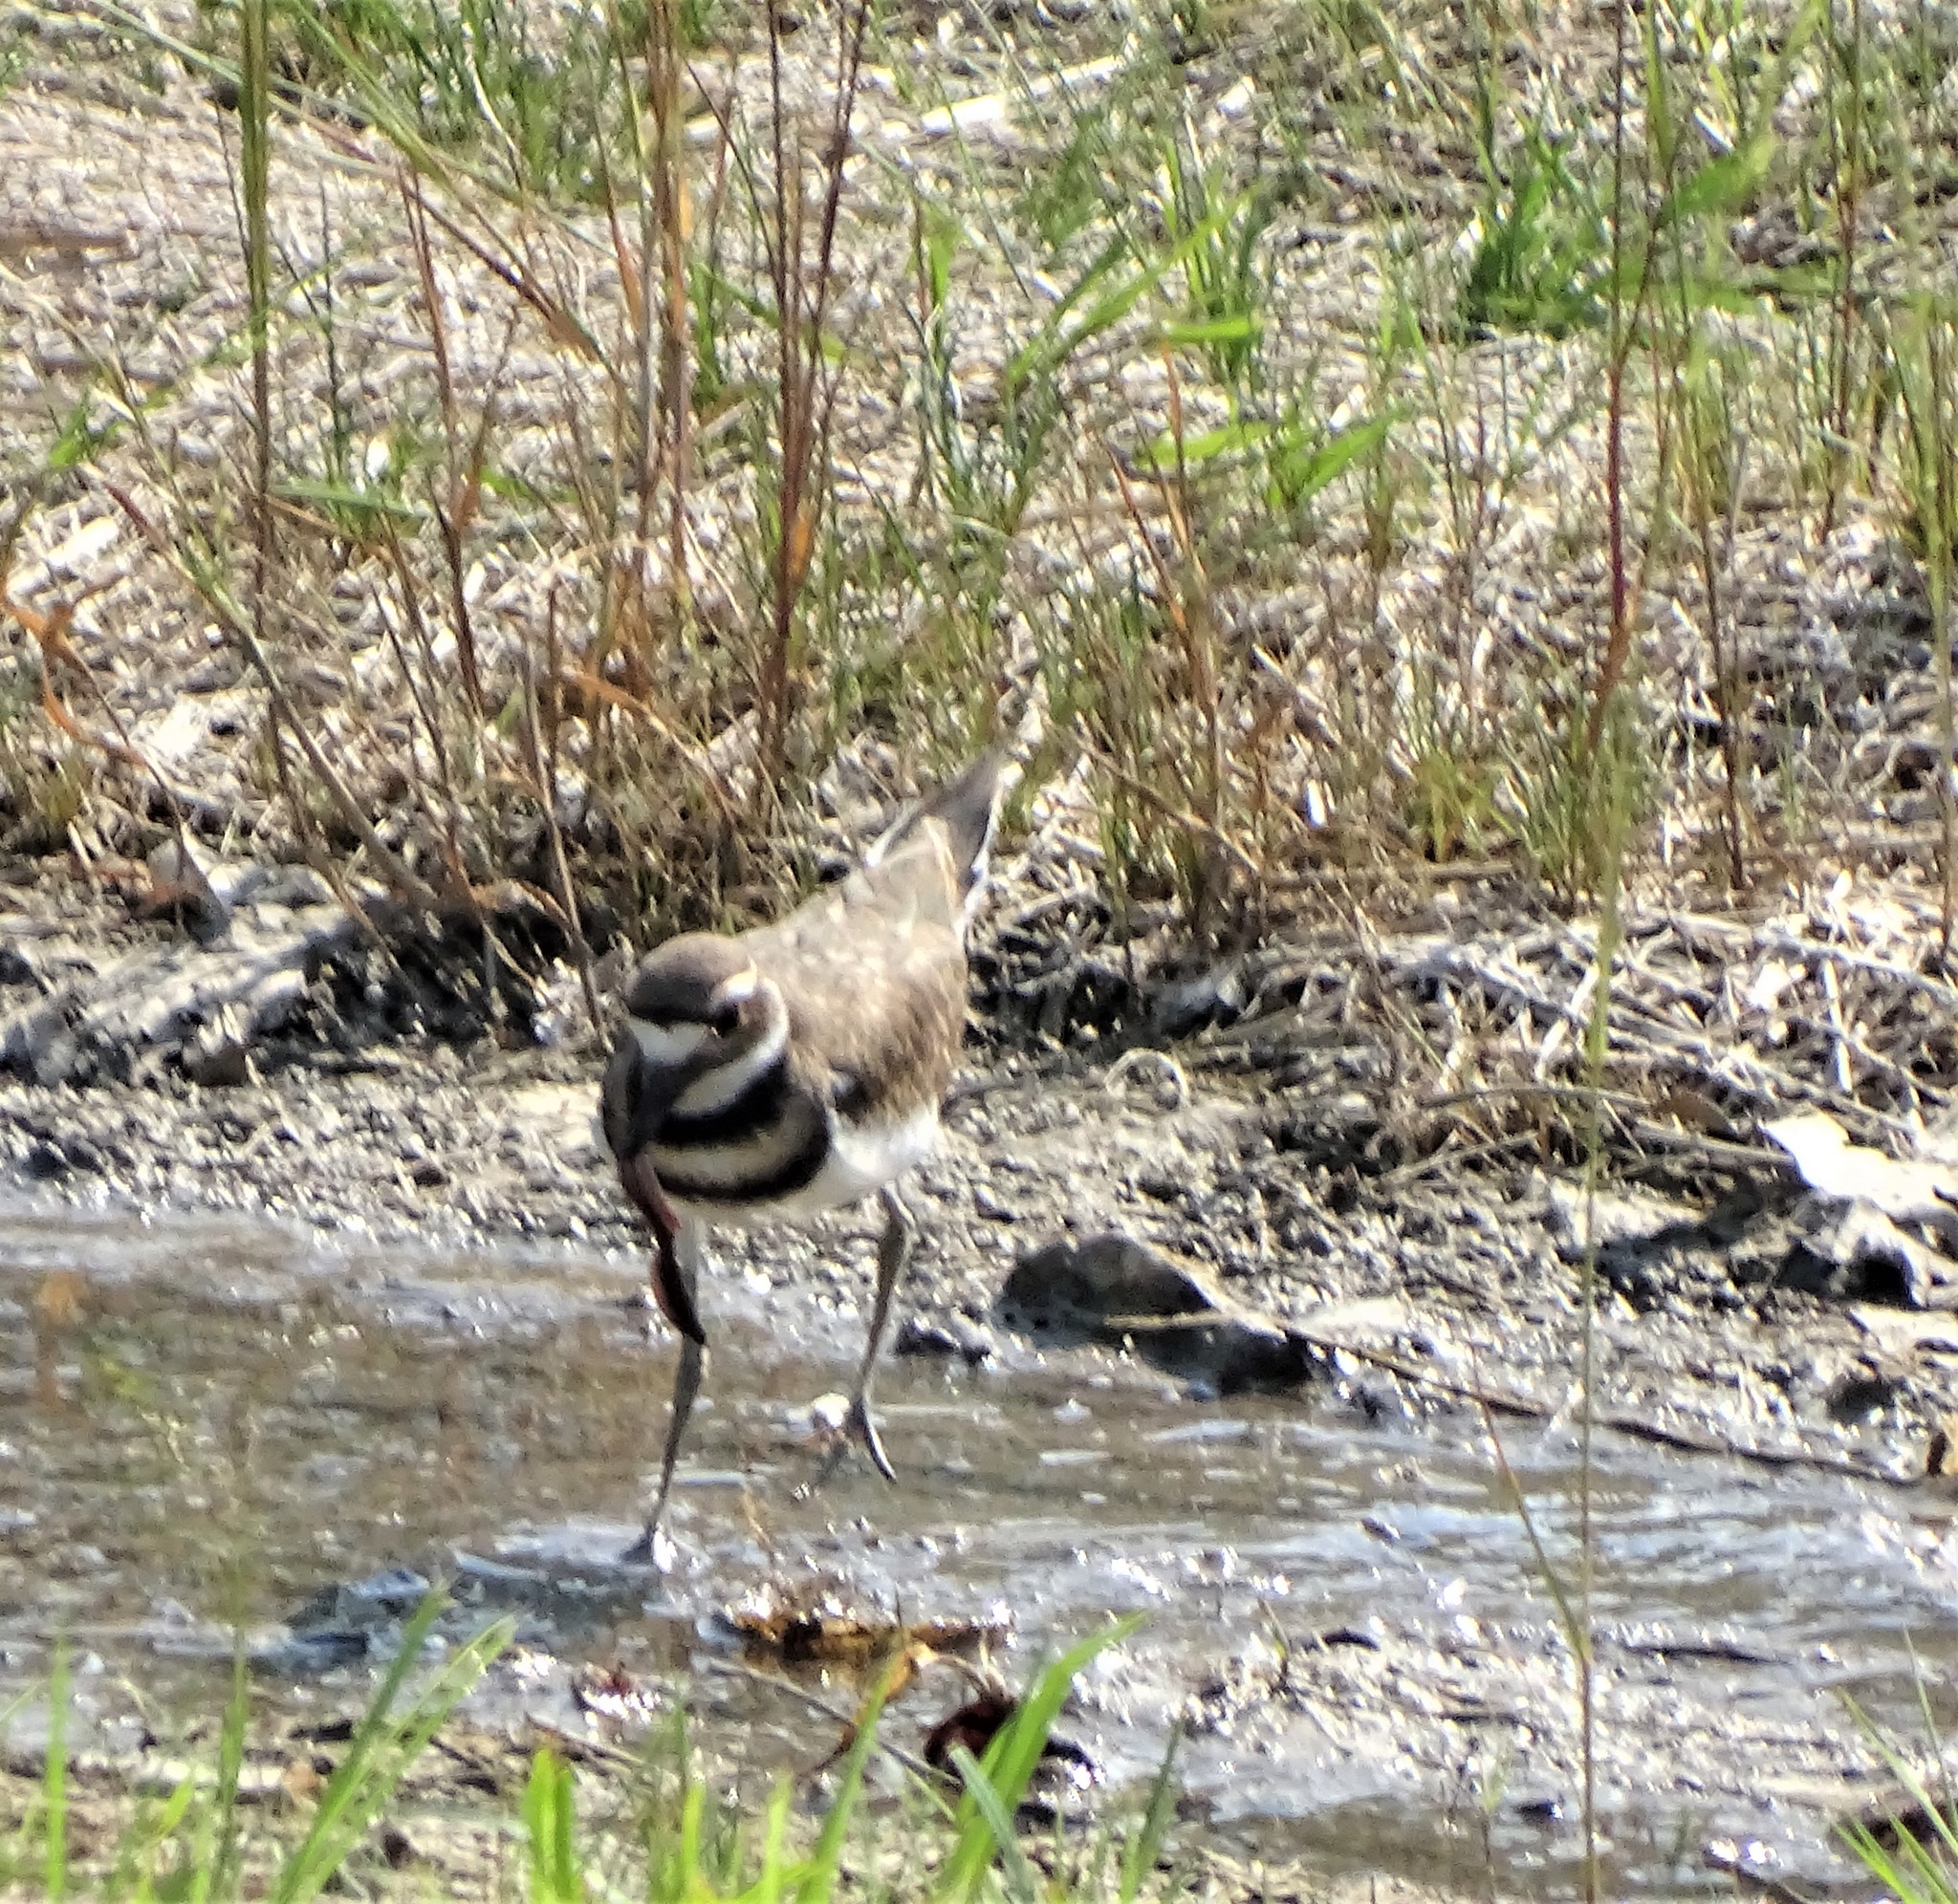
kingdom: Animalia
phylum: Chordata
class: Aves
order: Charadriiformes
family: Charadriidae
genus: Charadrius
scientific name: Charadrius vociferus
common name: Killdeer
